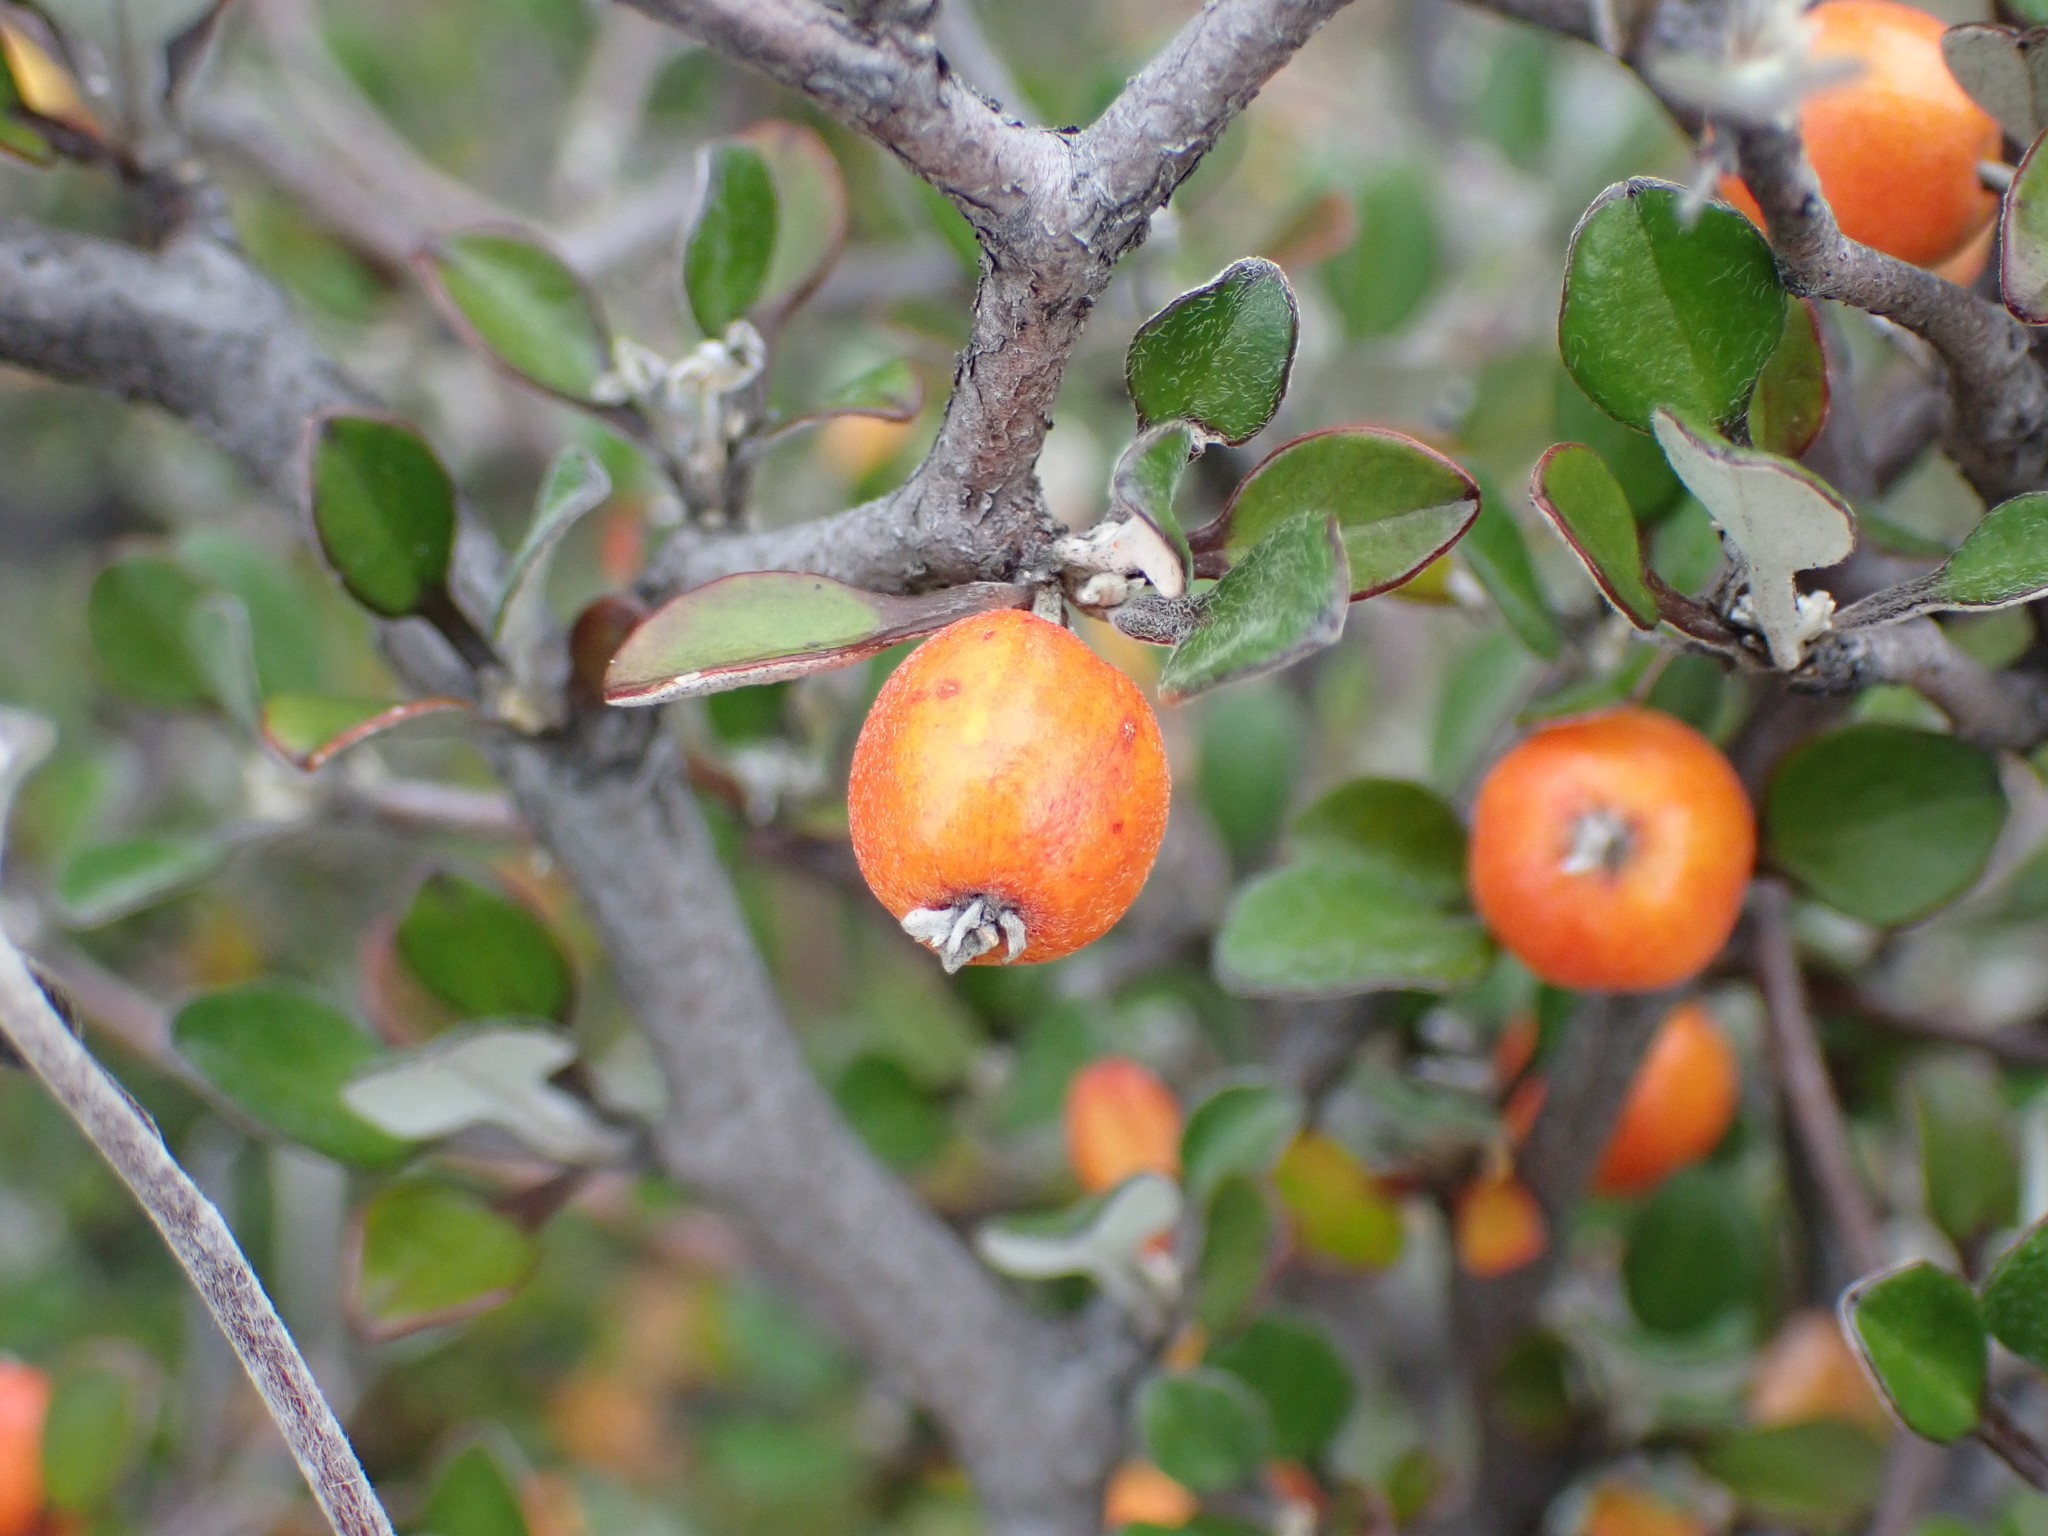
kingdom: Plantae
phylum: Tracheophyta
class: Magnoliopsida
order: Asterales
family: Argophyllaceae
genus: Corokia
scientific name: Corokia cotoneaster
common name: Wire nettingbush
